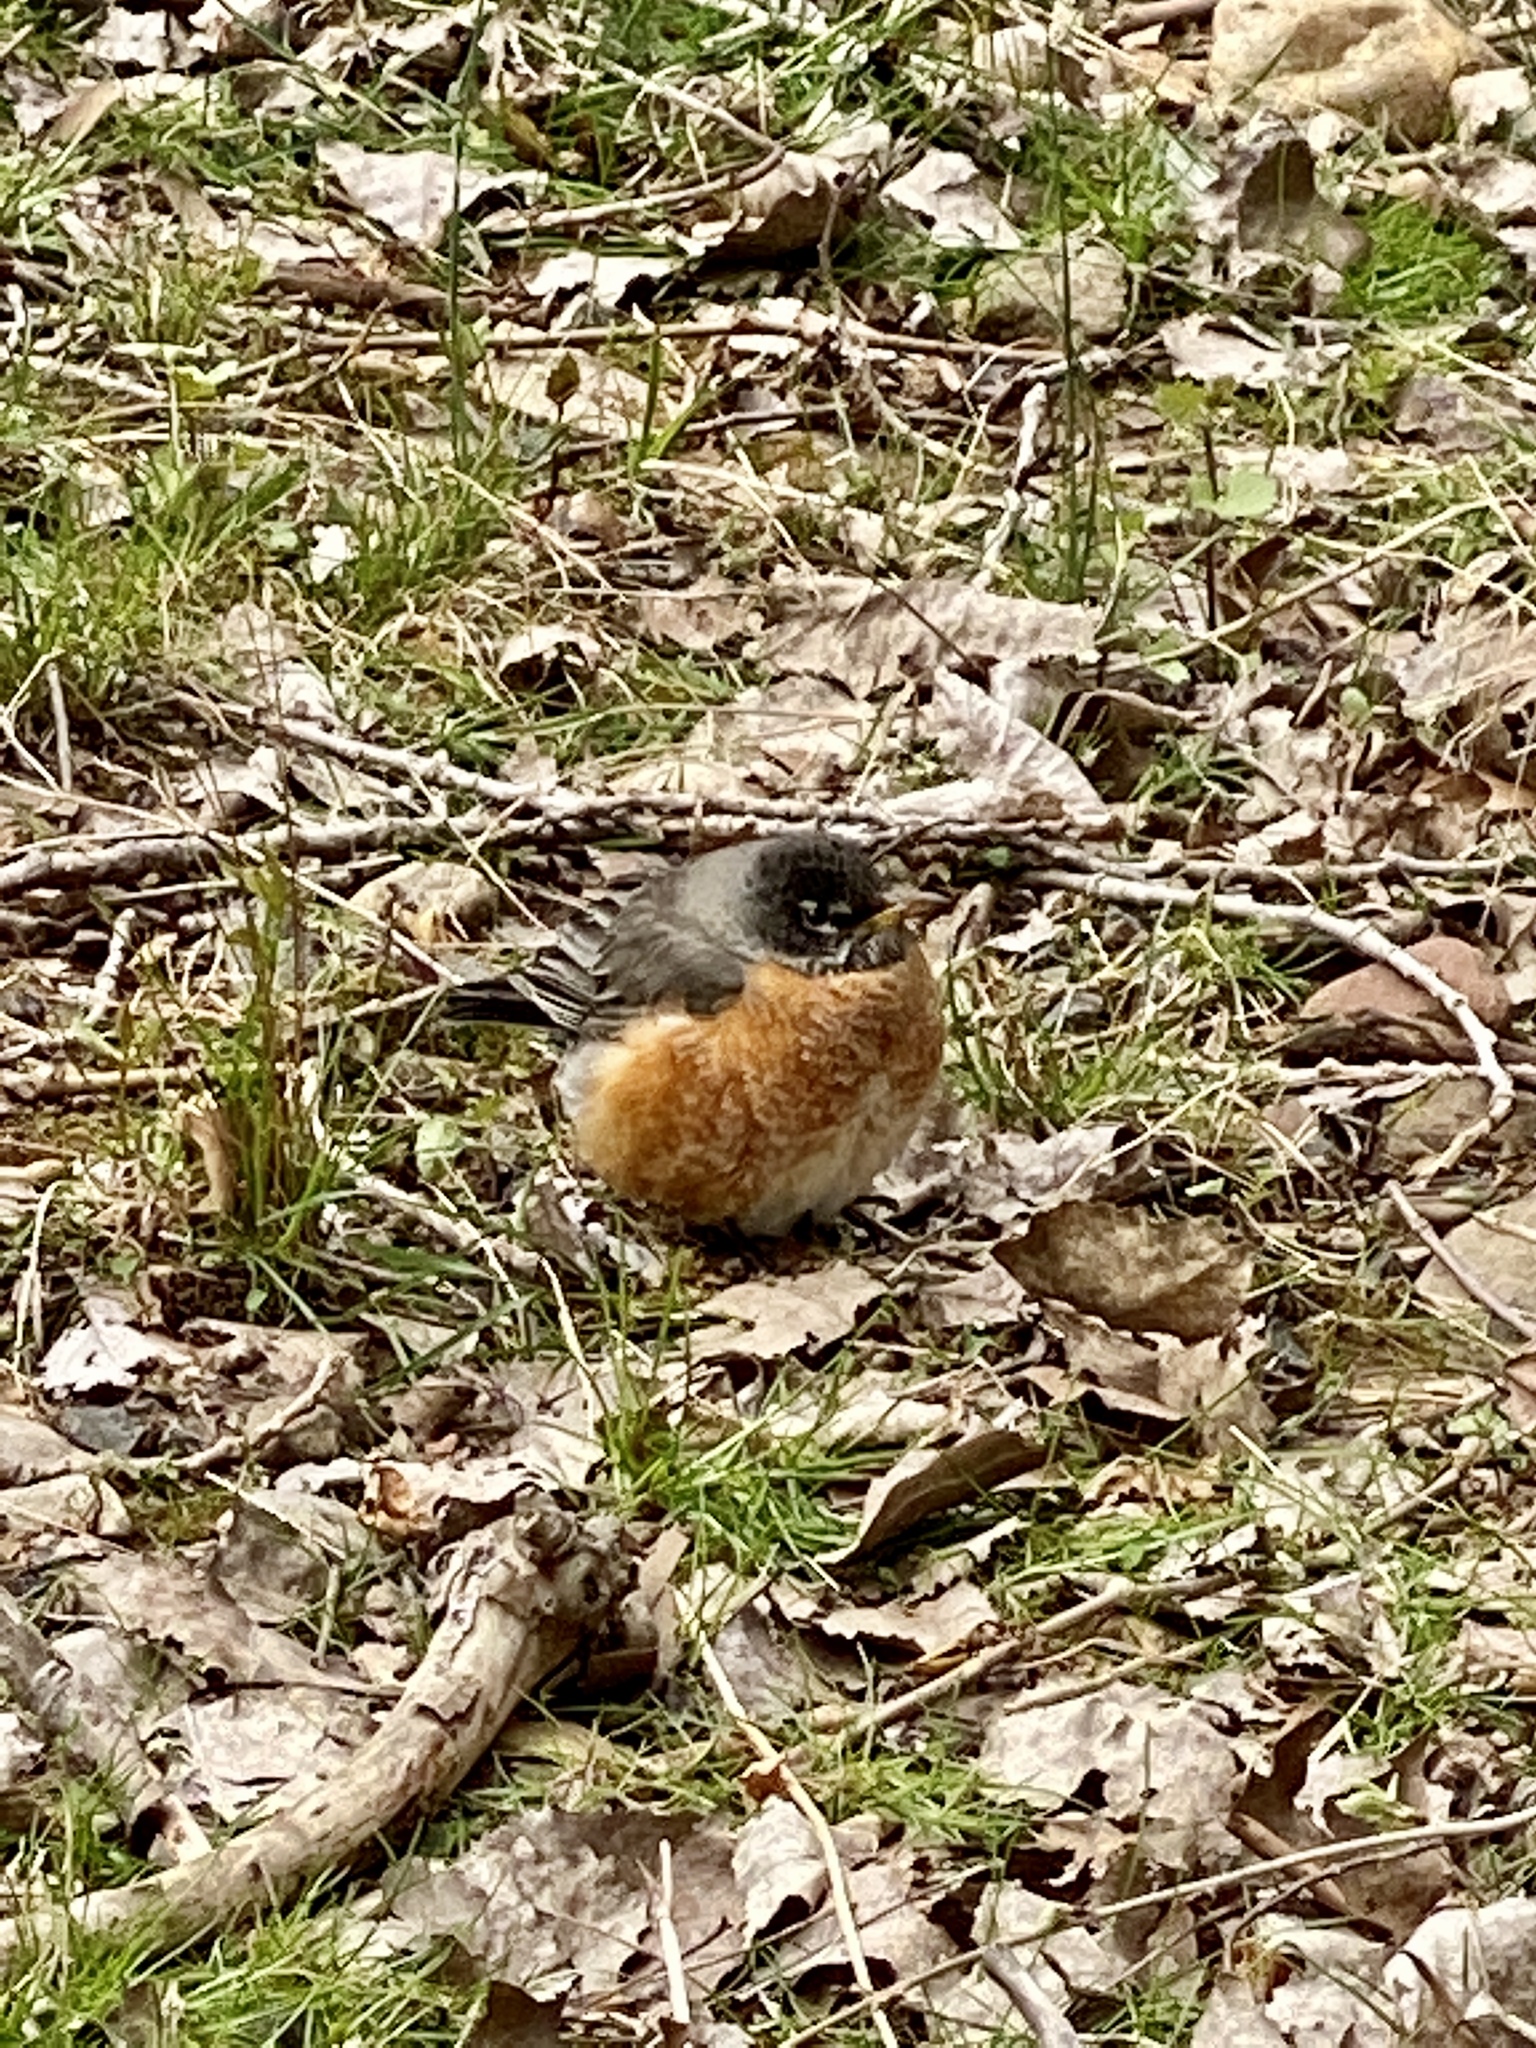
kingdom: Animalia
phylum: Chordata
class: Aves
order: Passeriformes
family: Turdidae
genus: Turdus
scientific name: Turdus migratorius
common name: American robin
